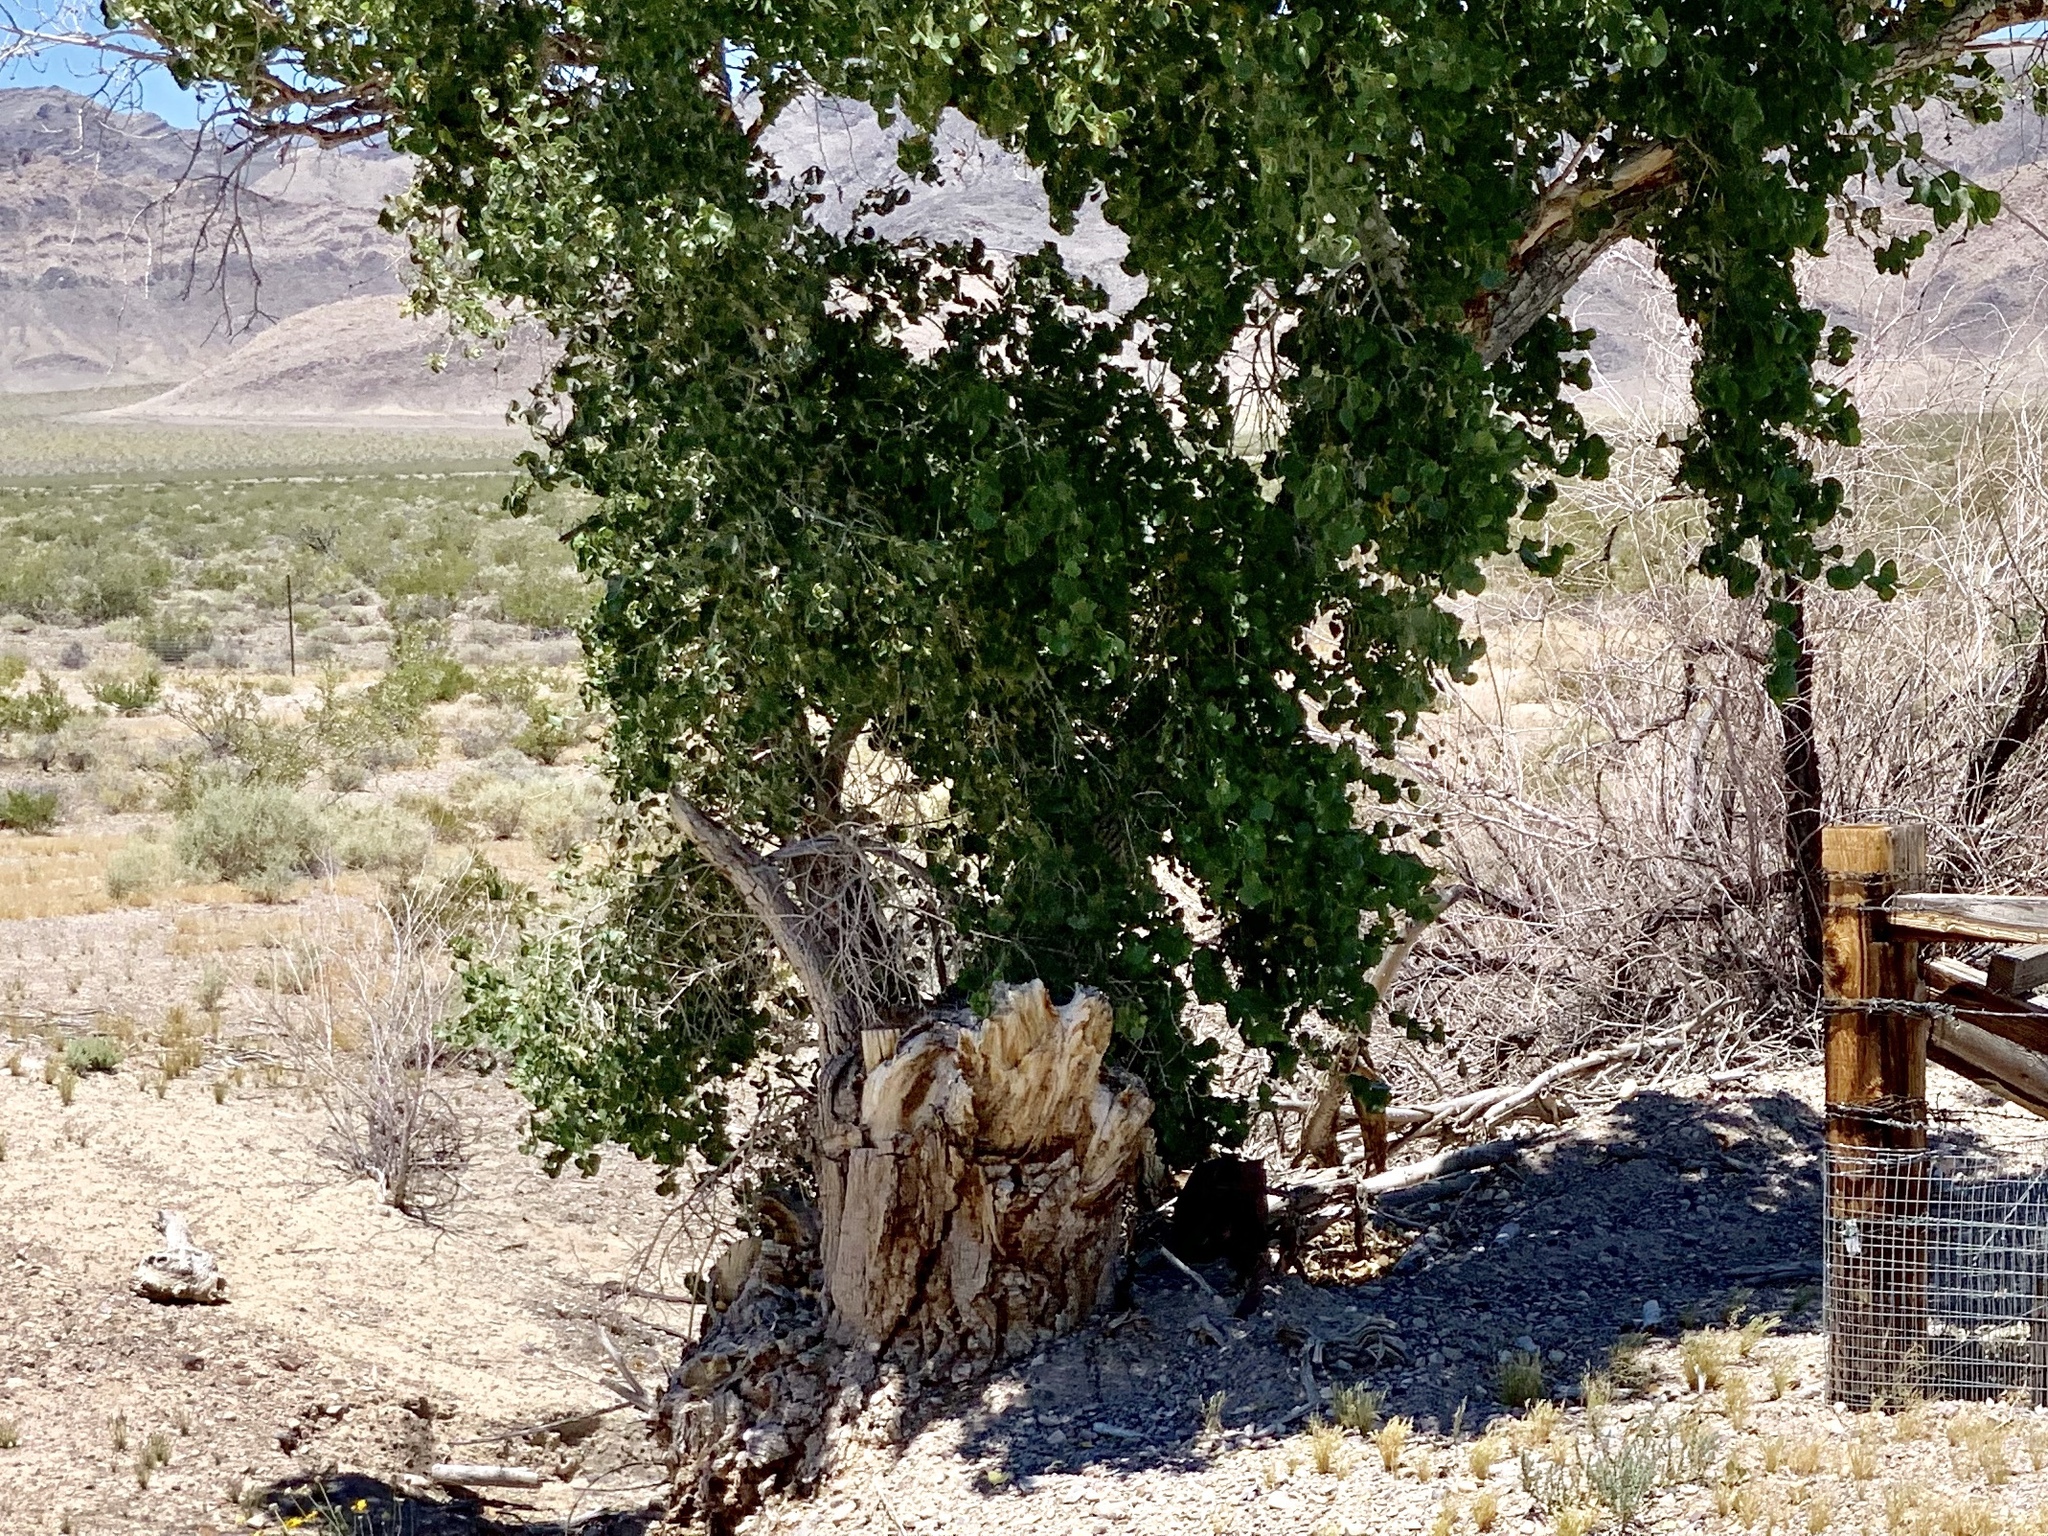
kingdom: Plantae
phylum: Tracheophyta
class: Magnoliopsida
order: Malpighiales
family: Salicaceae
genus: Populus
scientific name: Populus fremontii
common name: Fremont's cottonwood
